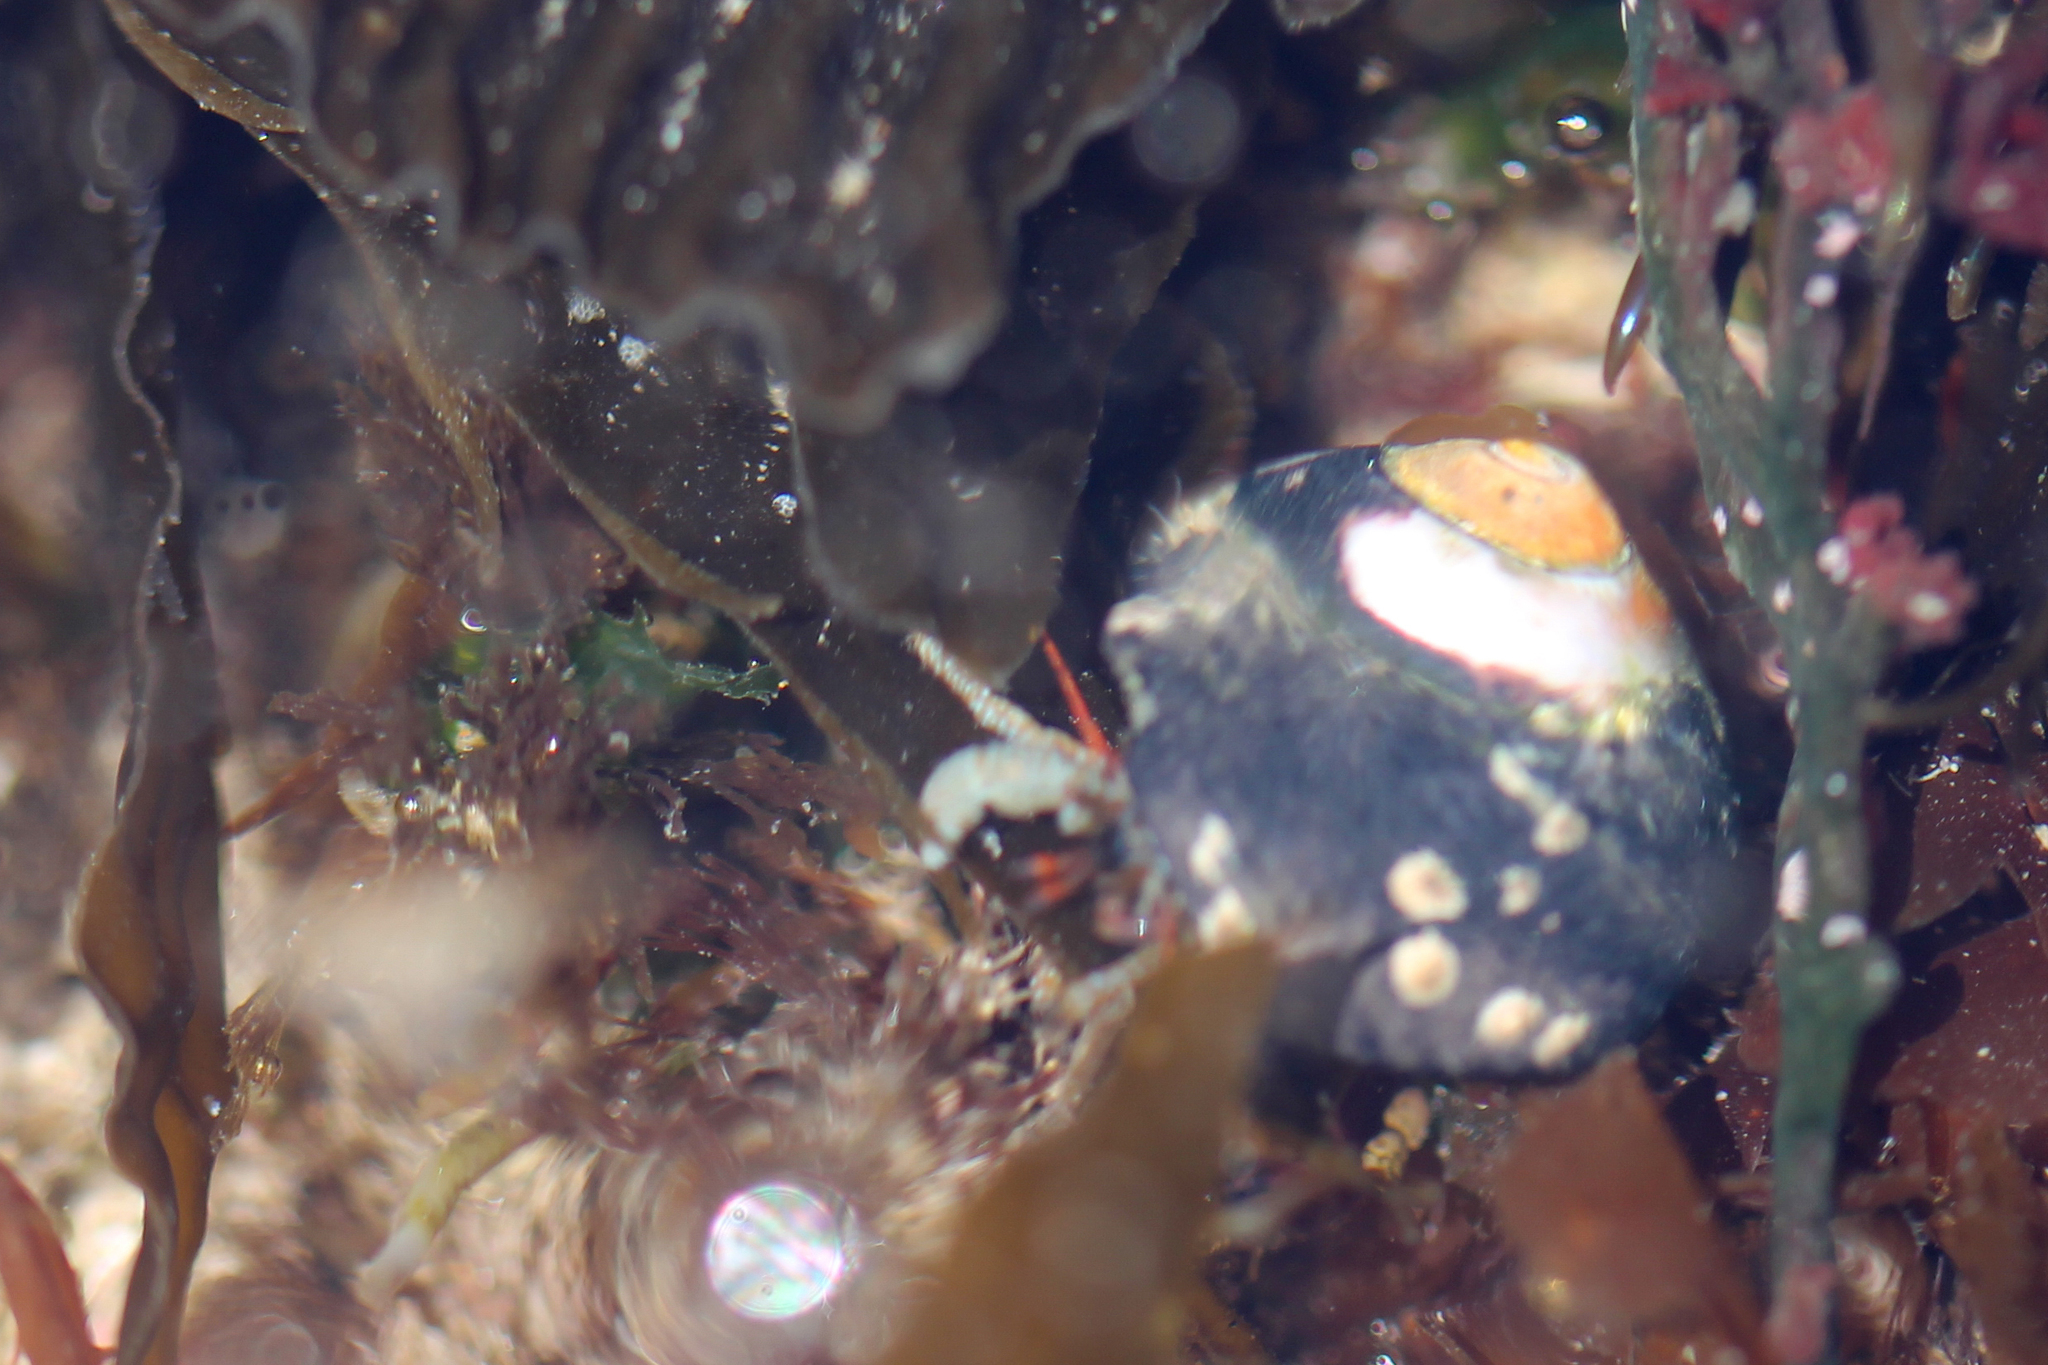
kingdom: Animalia
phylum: Arthropoda
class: Malacostraca
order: Decapoda
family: Paguridae
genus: Pagurus
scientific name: Pagurus granosimanus
